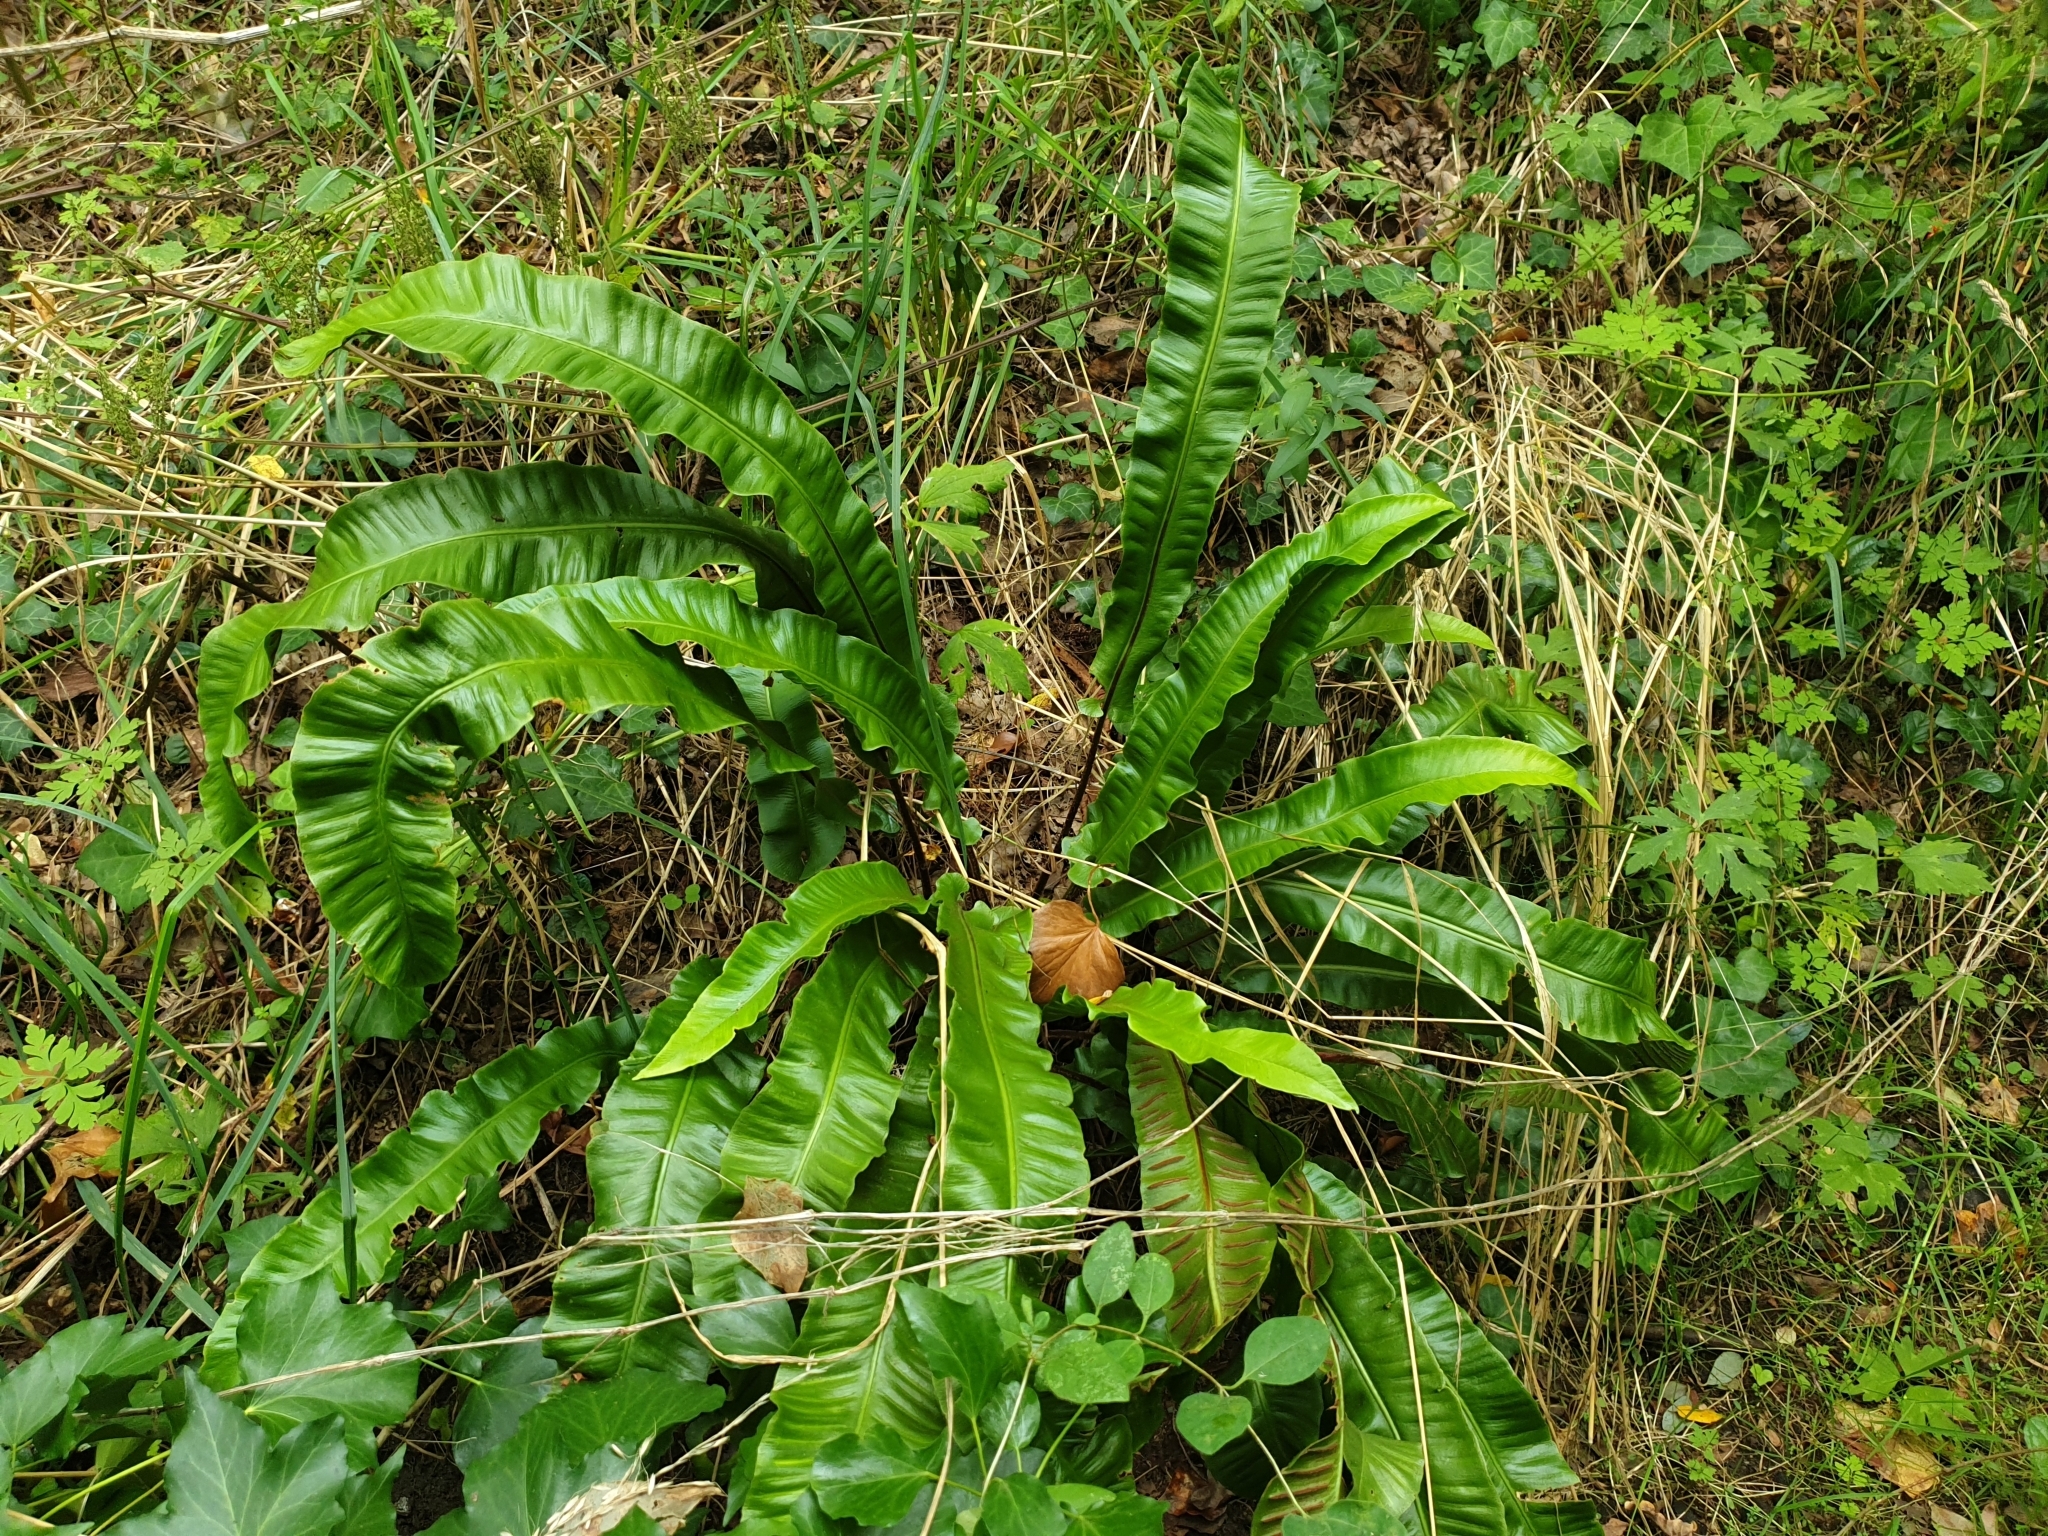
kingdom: Plantae
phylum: Tracheophyta
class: Polypodiopsida
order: Polypodiales
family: Aspleniaceae
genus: Asplenium
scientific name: Asplenium scolopendrium
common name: Hart's-tongue fern
